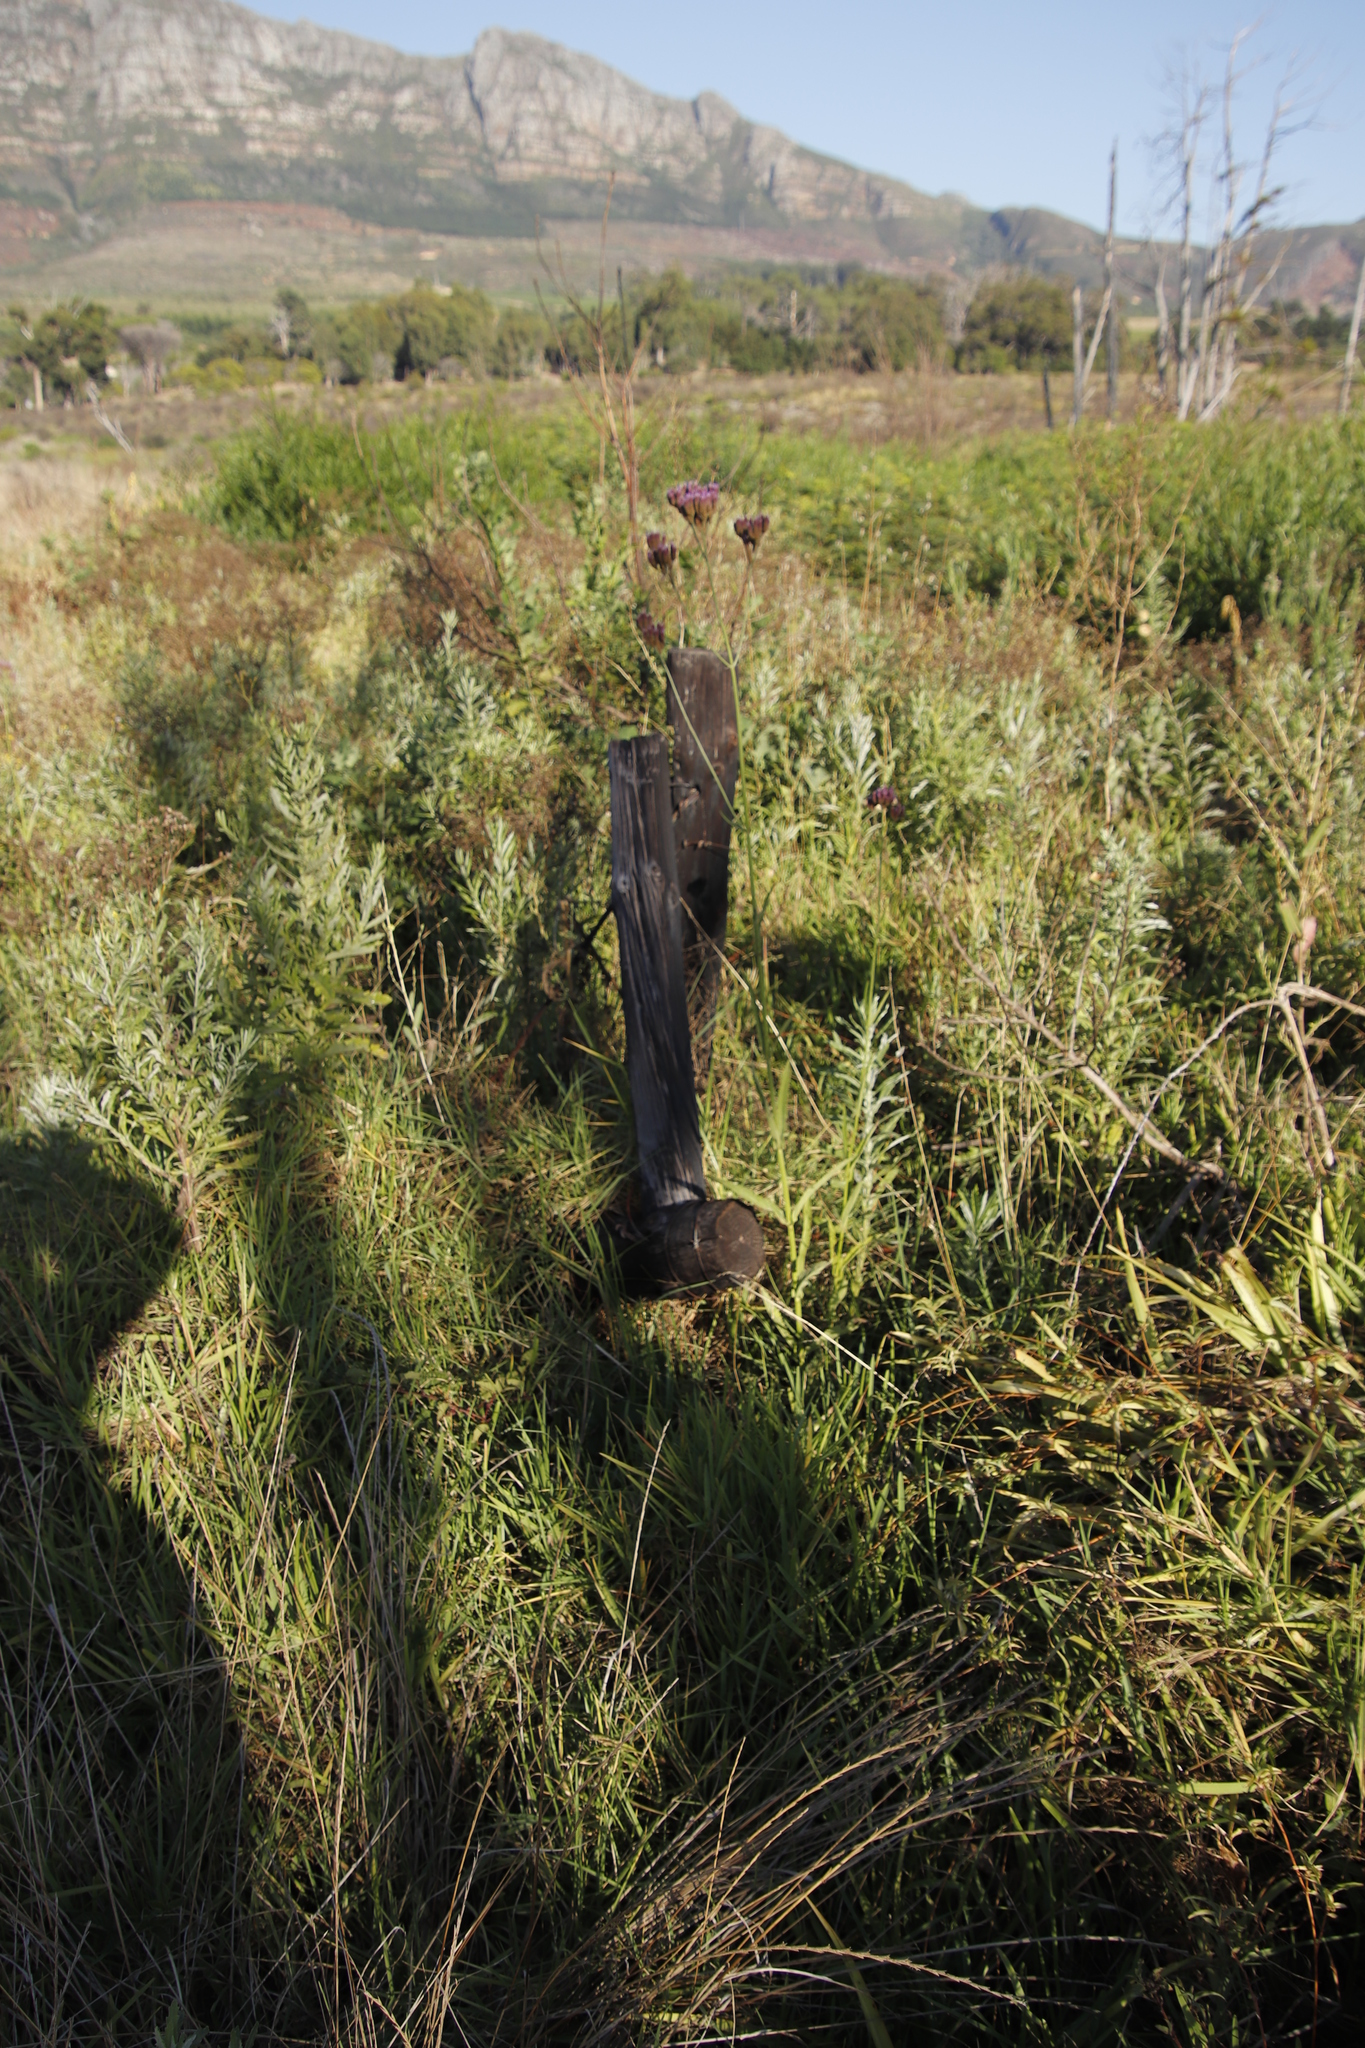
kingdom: Plantae
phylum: Tracheophyta
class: Magnoliopsida
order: Lamiales
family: Verbenaceae
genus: Verbena
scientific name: Verbena bonariensis
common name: Purpletop vervain
